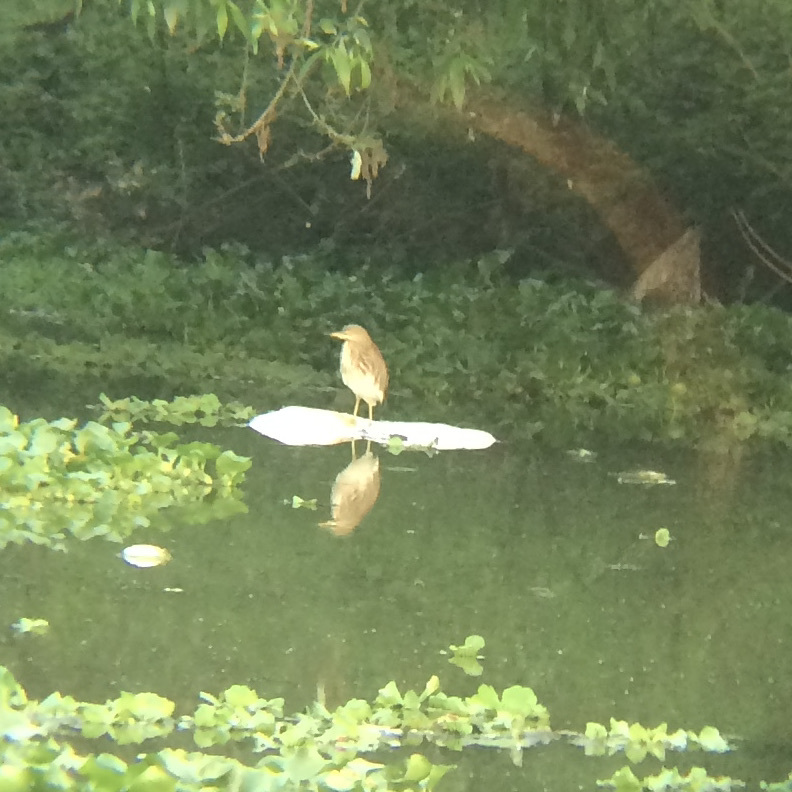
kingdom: Animalia
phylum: Chordata
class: Aves
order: Pelecaniformes
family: Ardeidae
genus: Ardeola
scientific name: Ardeola grayii
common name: Indian pond heron
